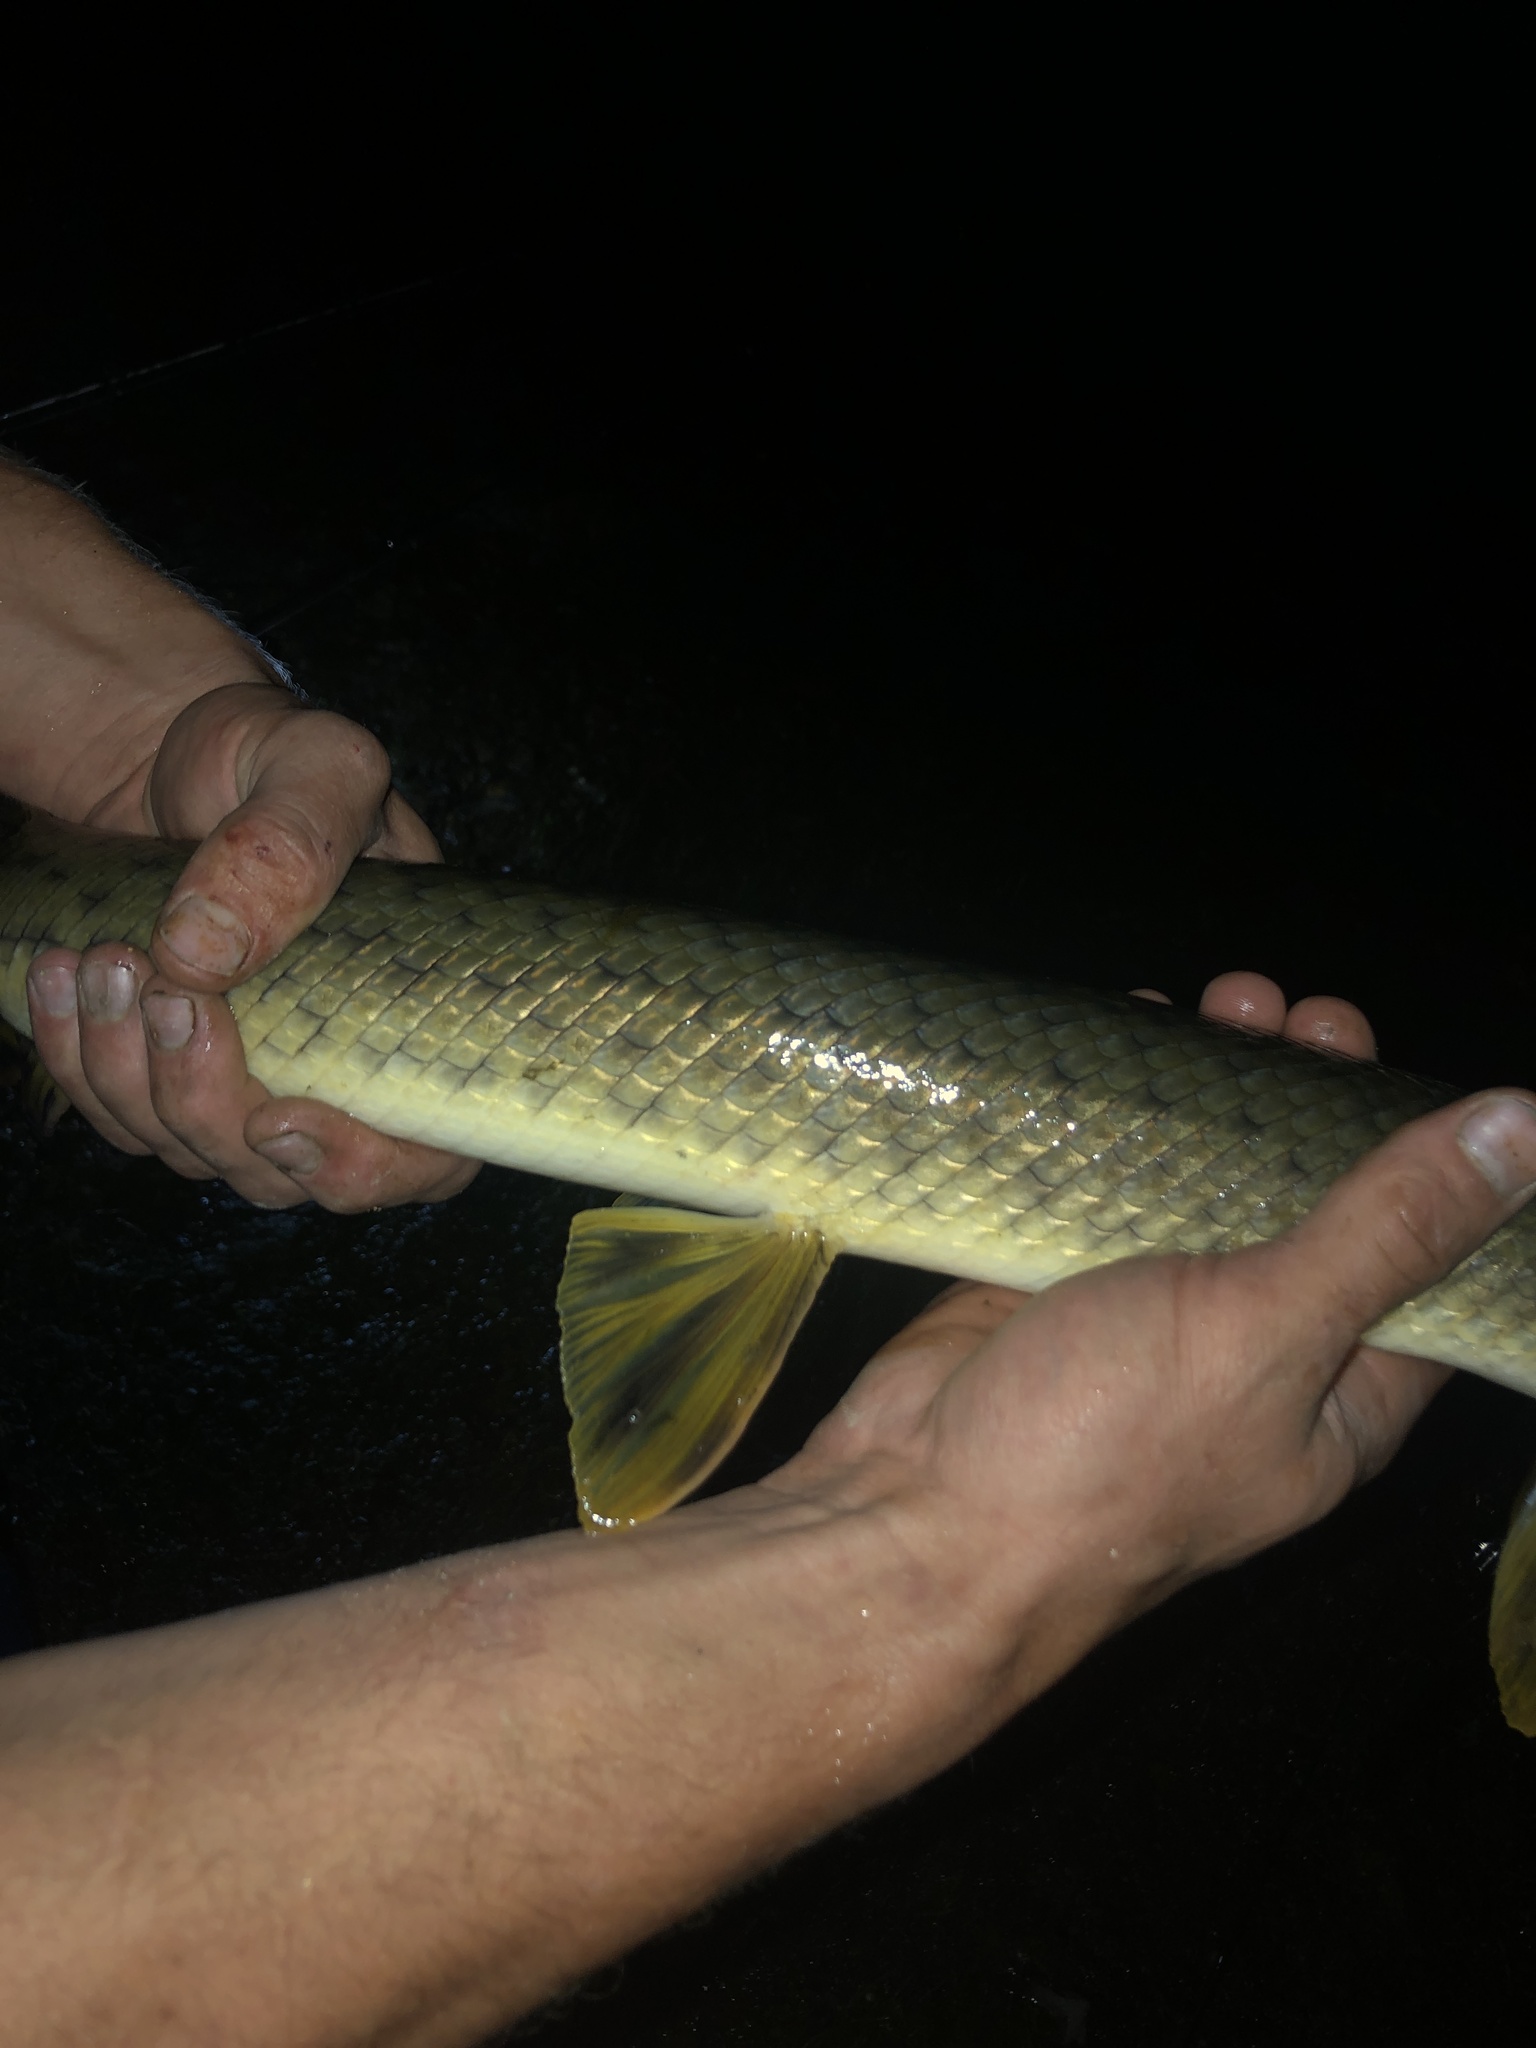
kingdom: Animalia
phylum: Chordata
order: Lepisosteiformes
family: Lepisosteidae
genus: Lepisosteus
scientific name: Lepisosteus osseus
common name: Longnose gar
